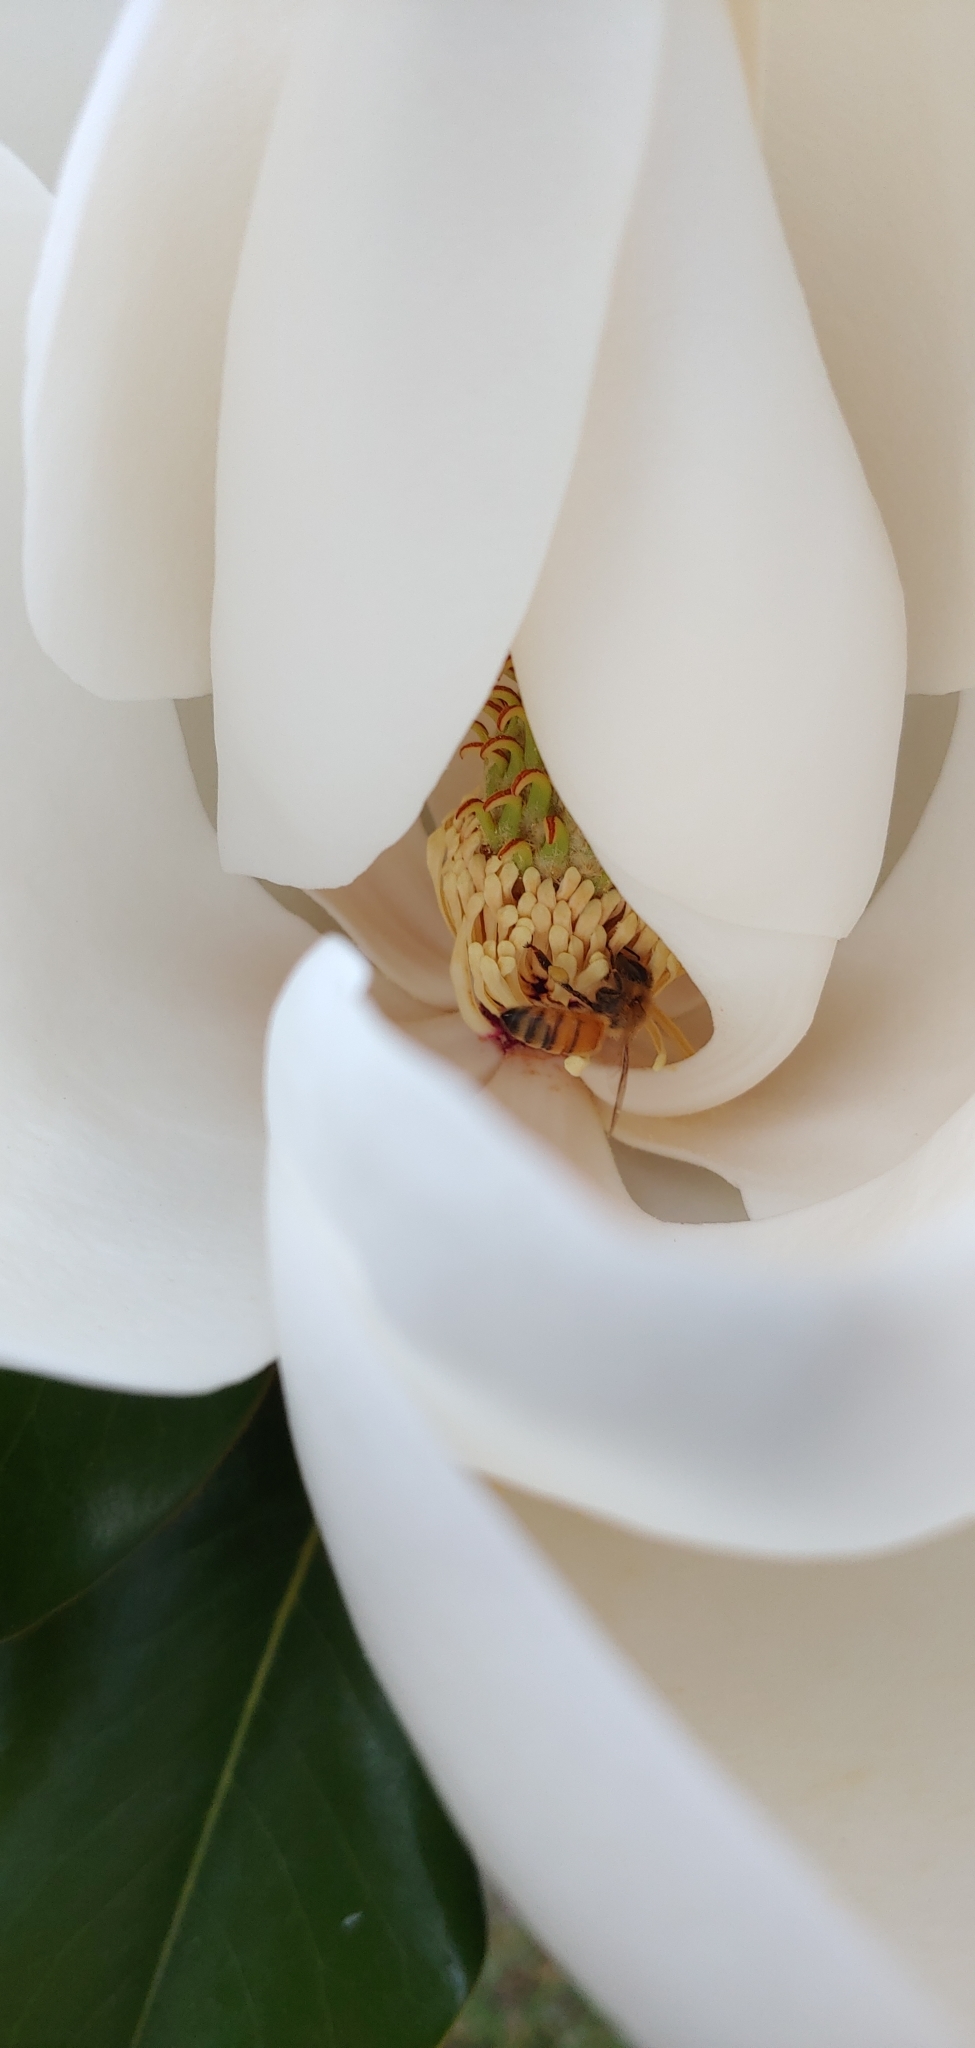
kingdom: Animalia
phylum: Arthropoda
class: Insecta
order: Hymenoptera
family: Apidae
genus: Apis
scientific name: Apis mellifera
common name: Honey bee
